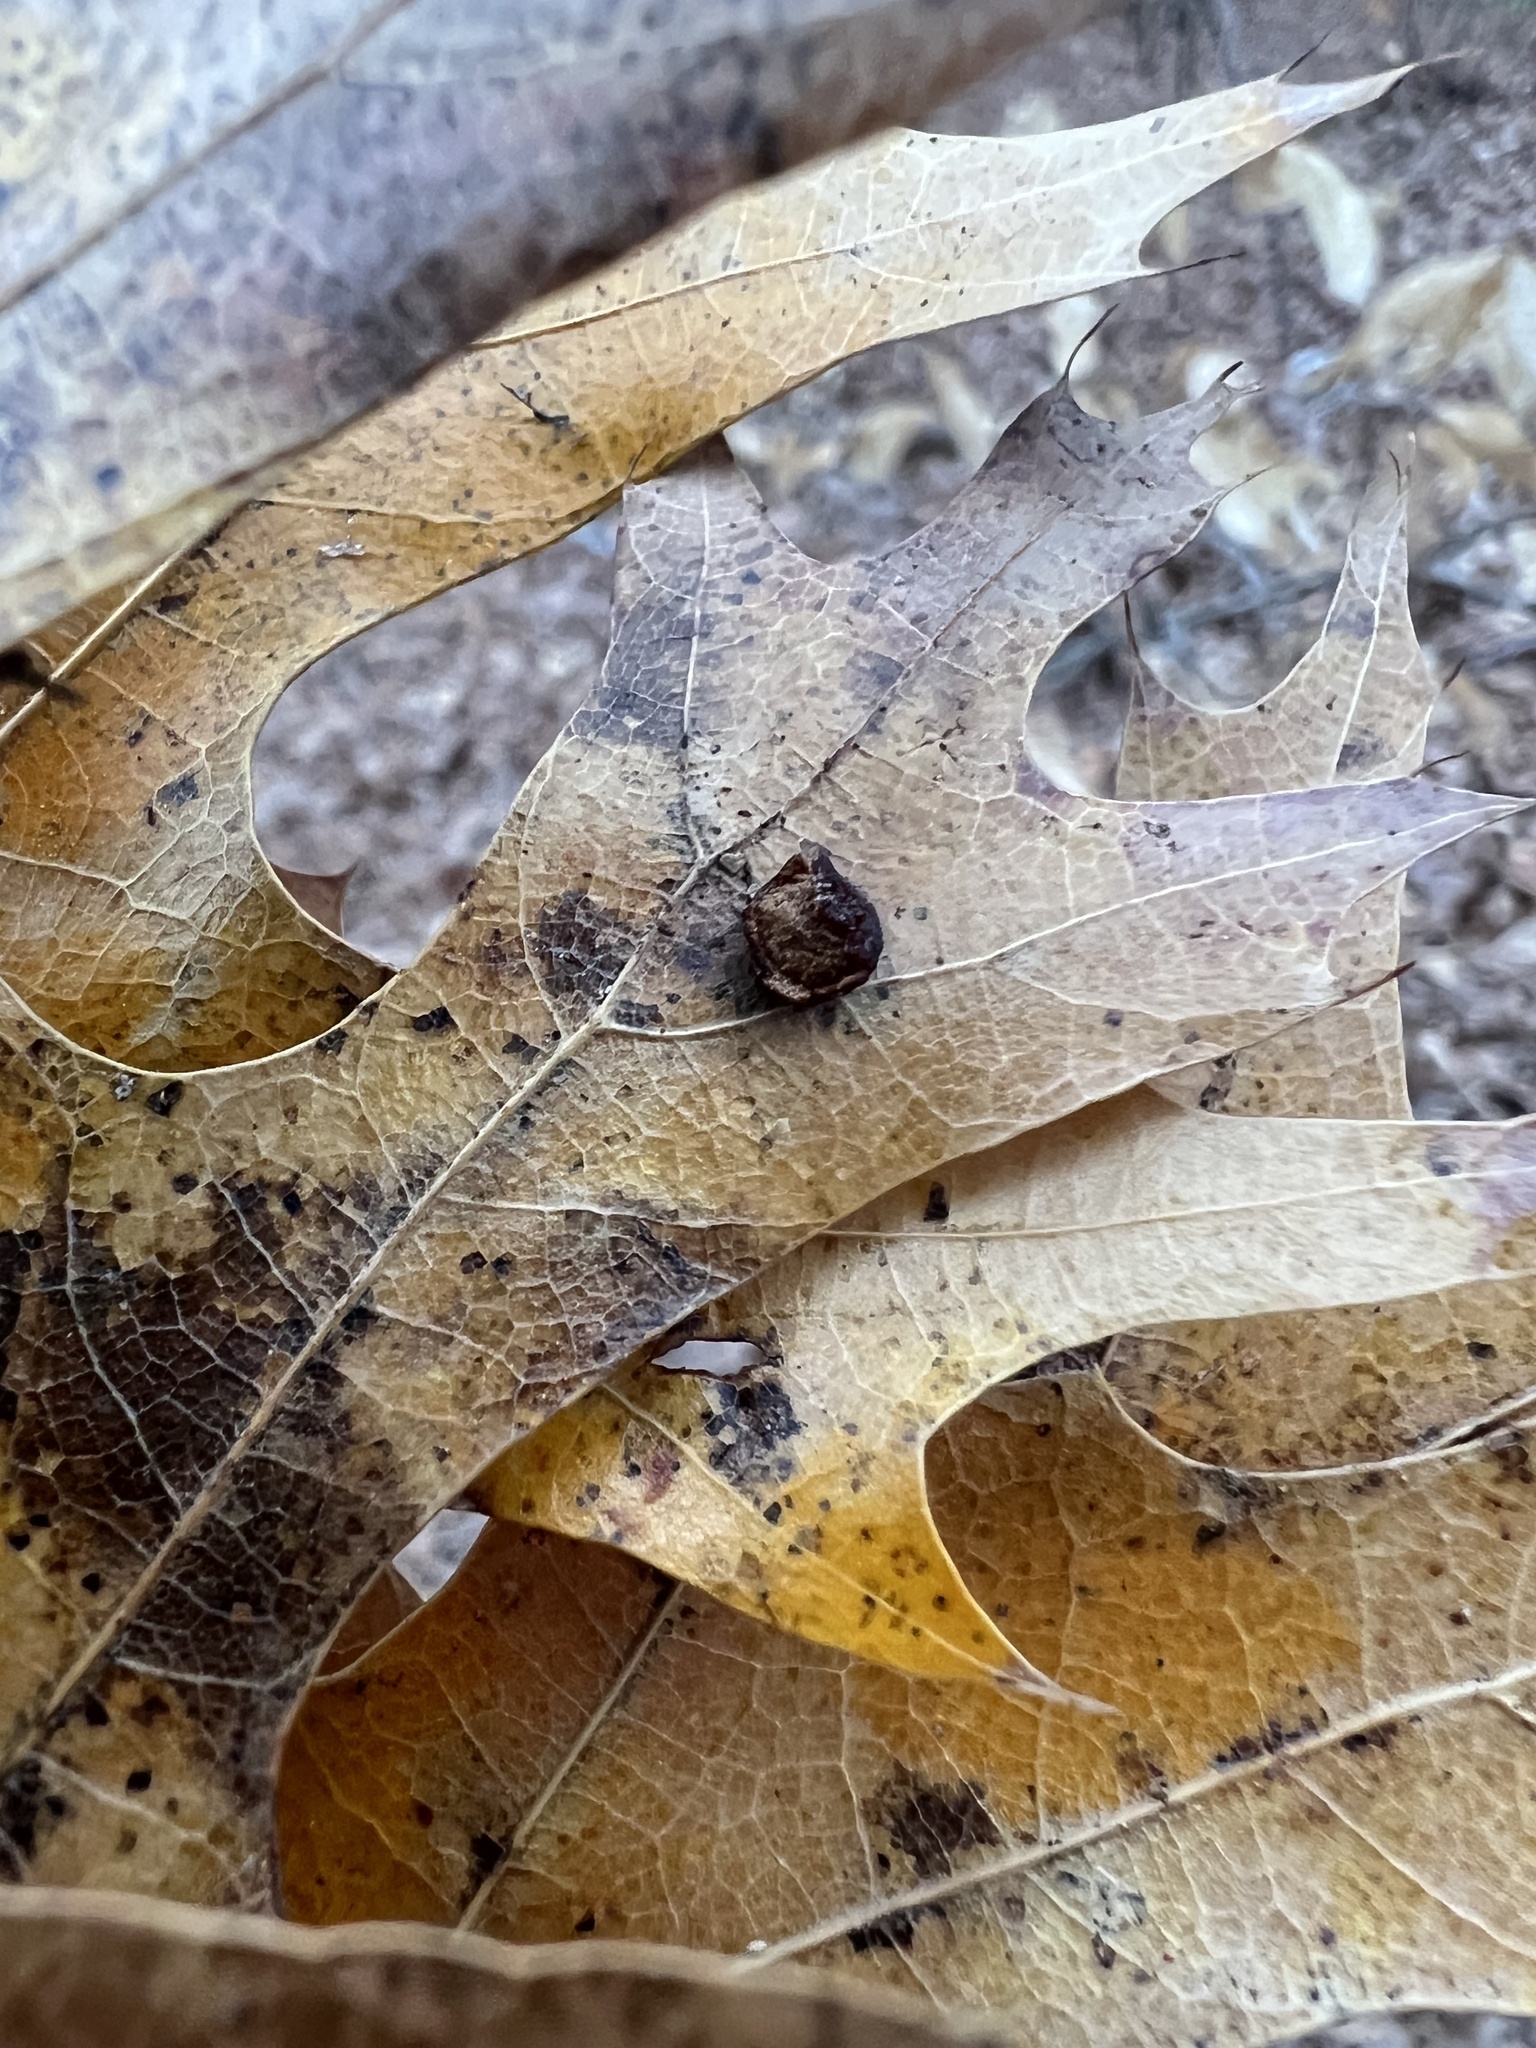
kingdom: Animalia
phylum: Arthropoda
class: Insecta
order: Diptera
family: Cecidomyiidae
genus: Polystepha
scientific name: Polystepha pilulae
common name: Oak leaf gall midge
